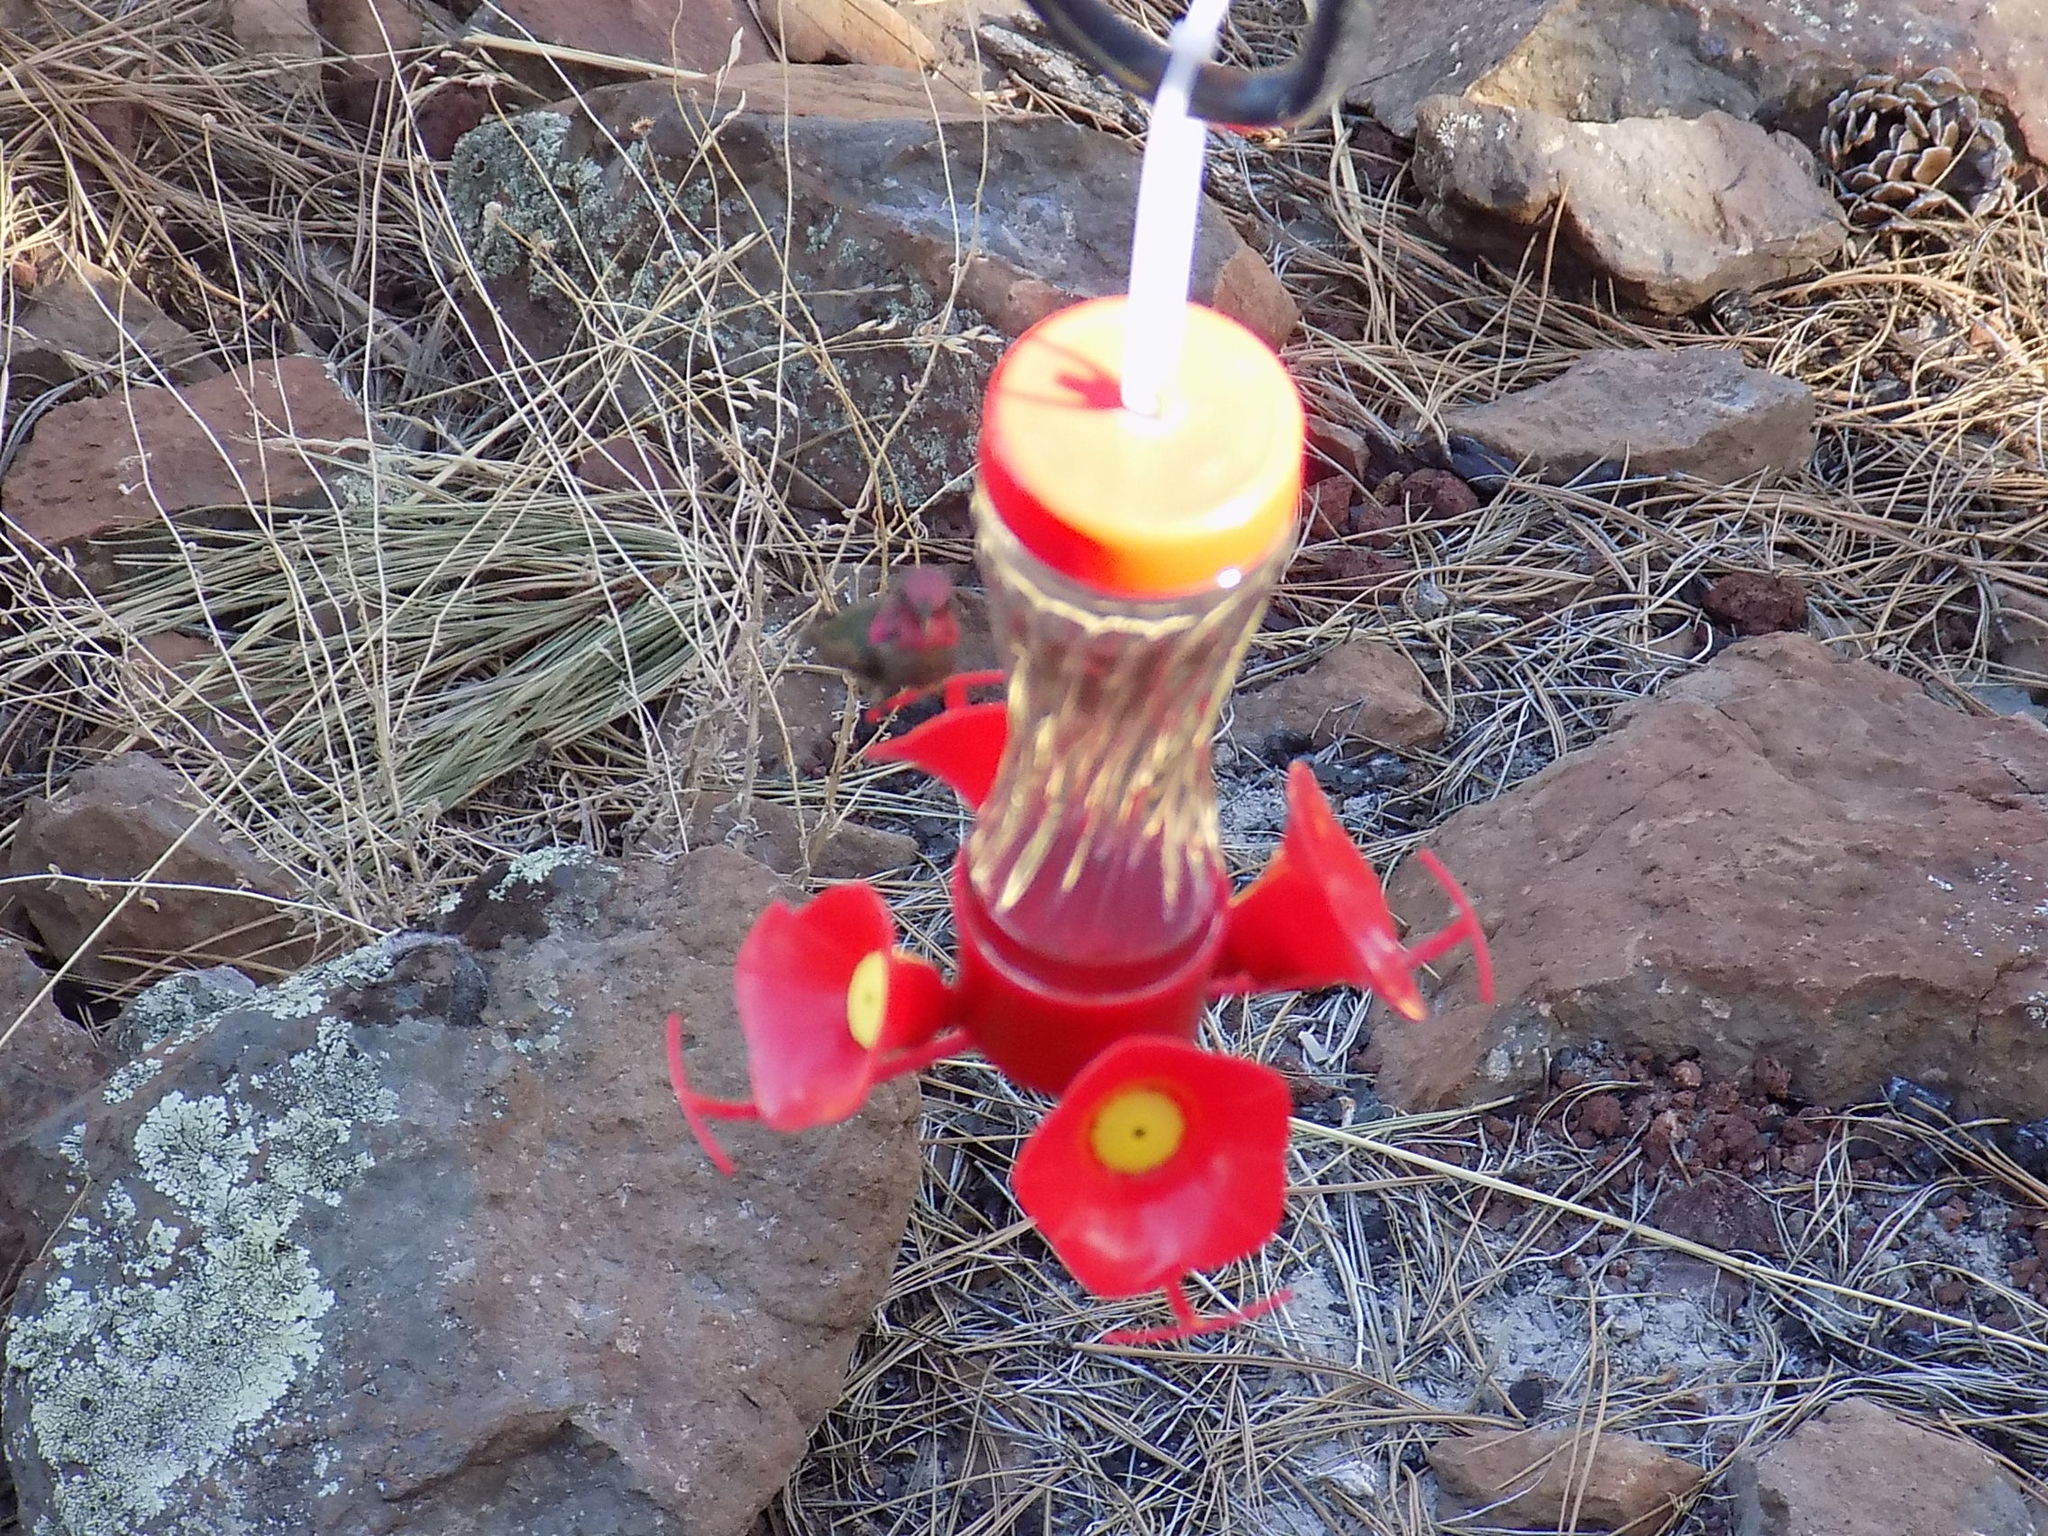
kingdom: Animalia
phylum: Chordata
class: Aves
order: Apodiformes
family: Trochilidae
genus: Calypte
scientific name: Calypte anna
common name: Anna's hummingbird
